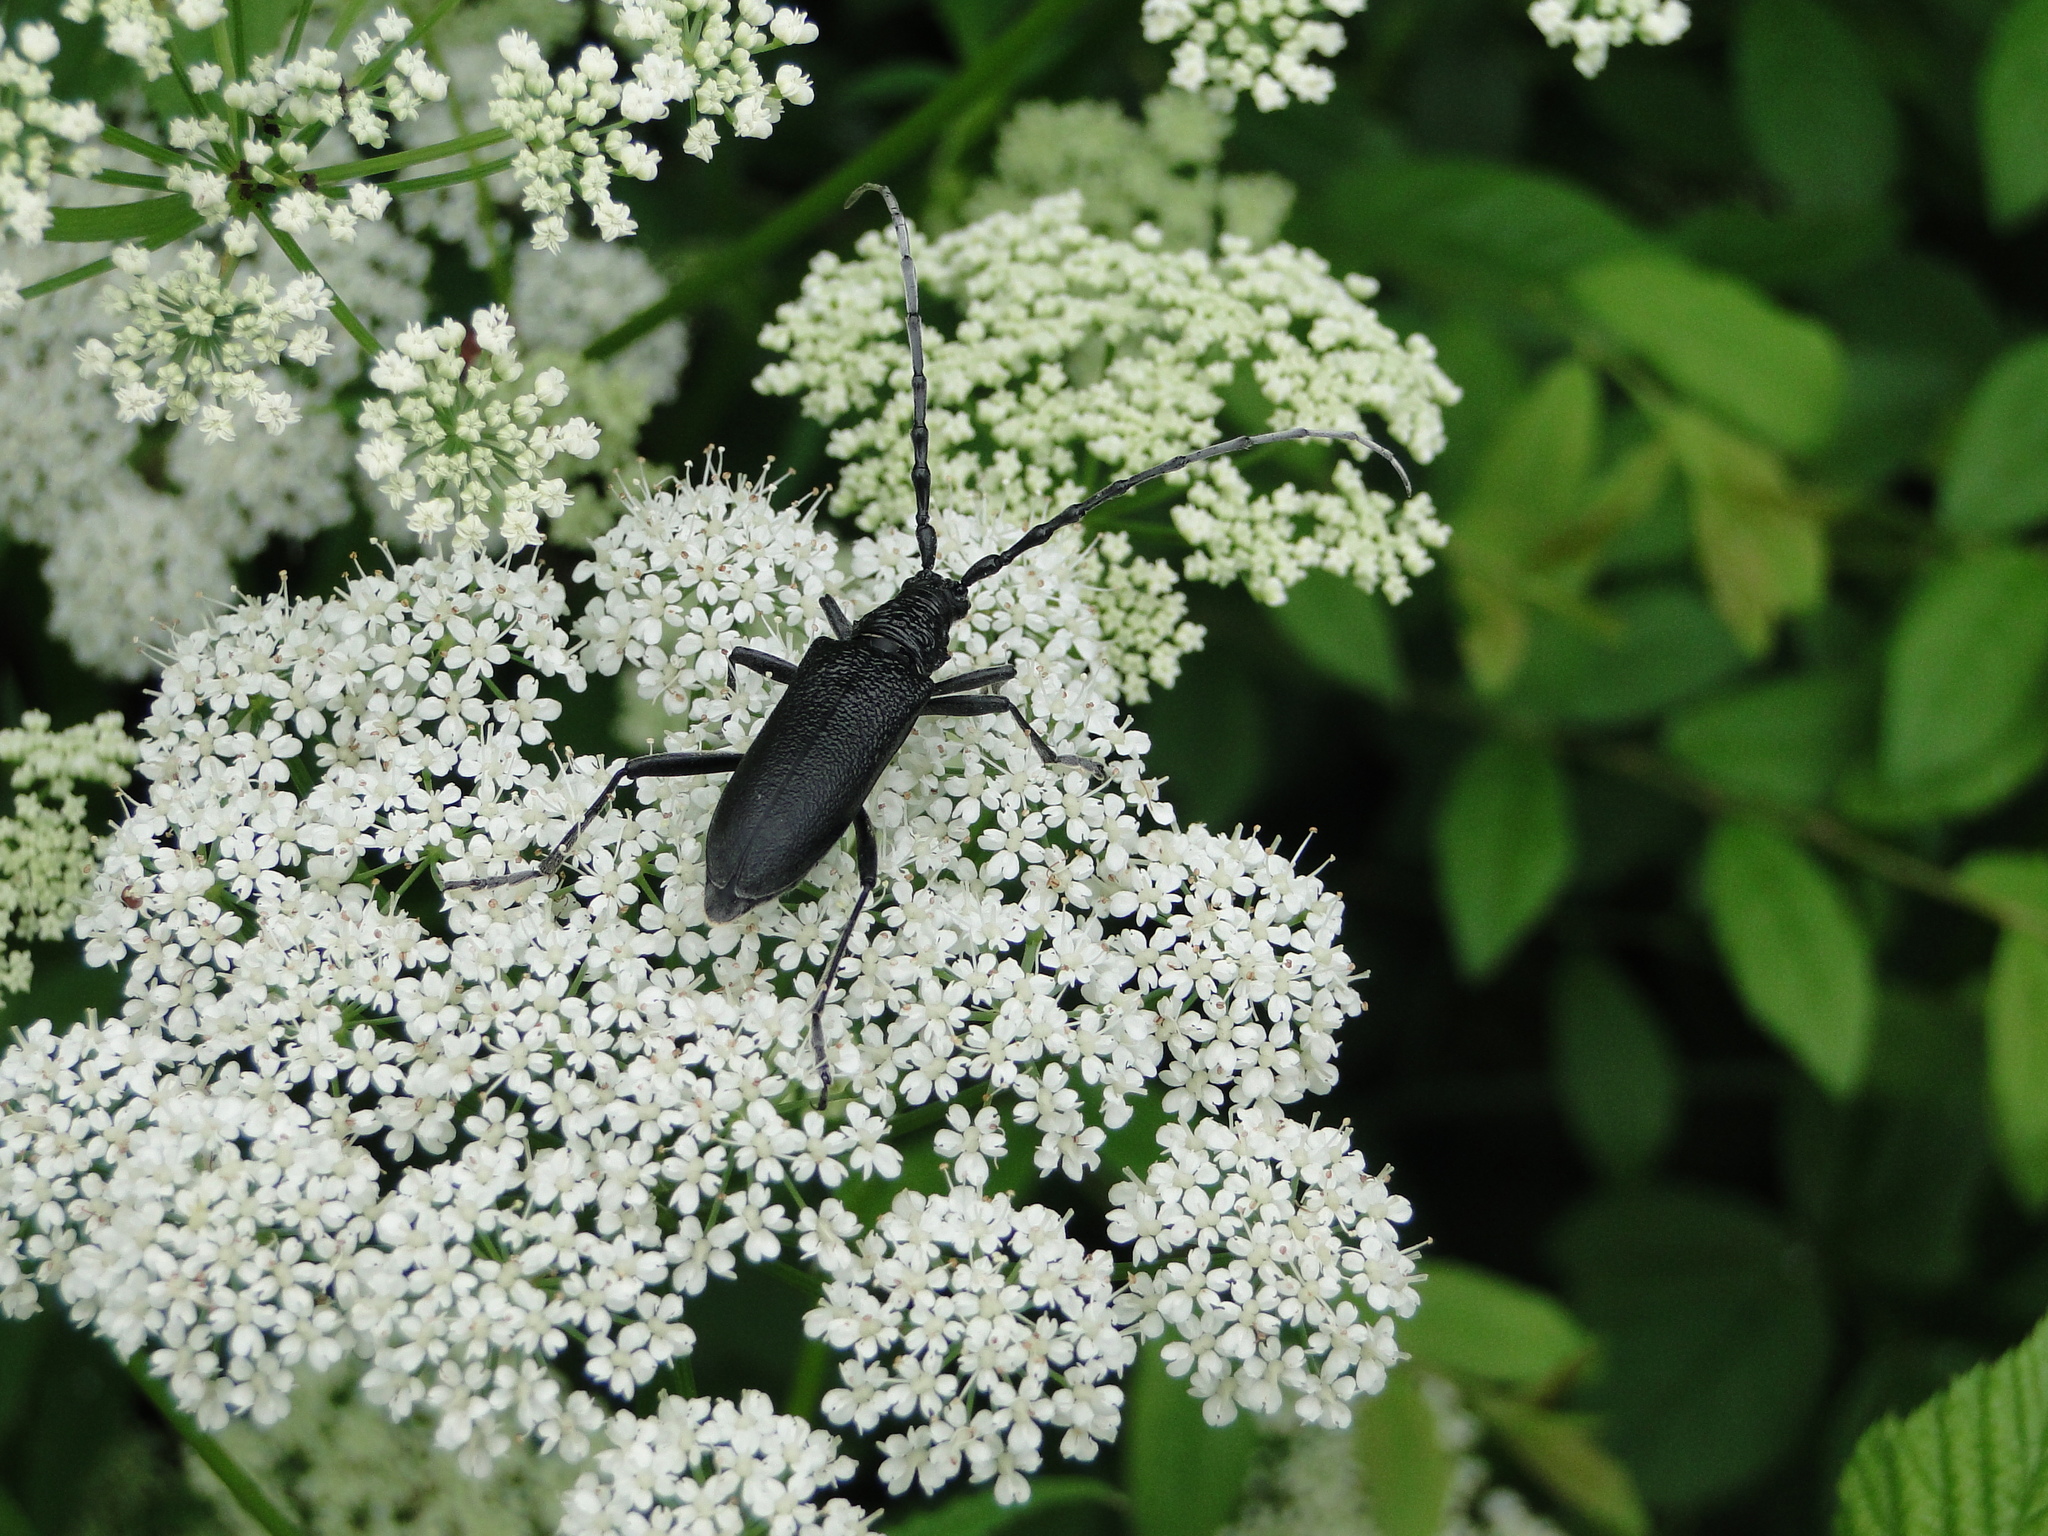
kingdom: Animalia
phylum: Arthropoda
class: Insecta
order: Coleoptera
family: Cerambycidae
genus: Cerambyx
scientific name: Cerambyx scopolii
